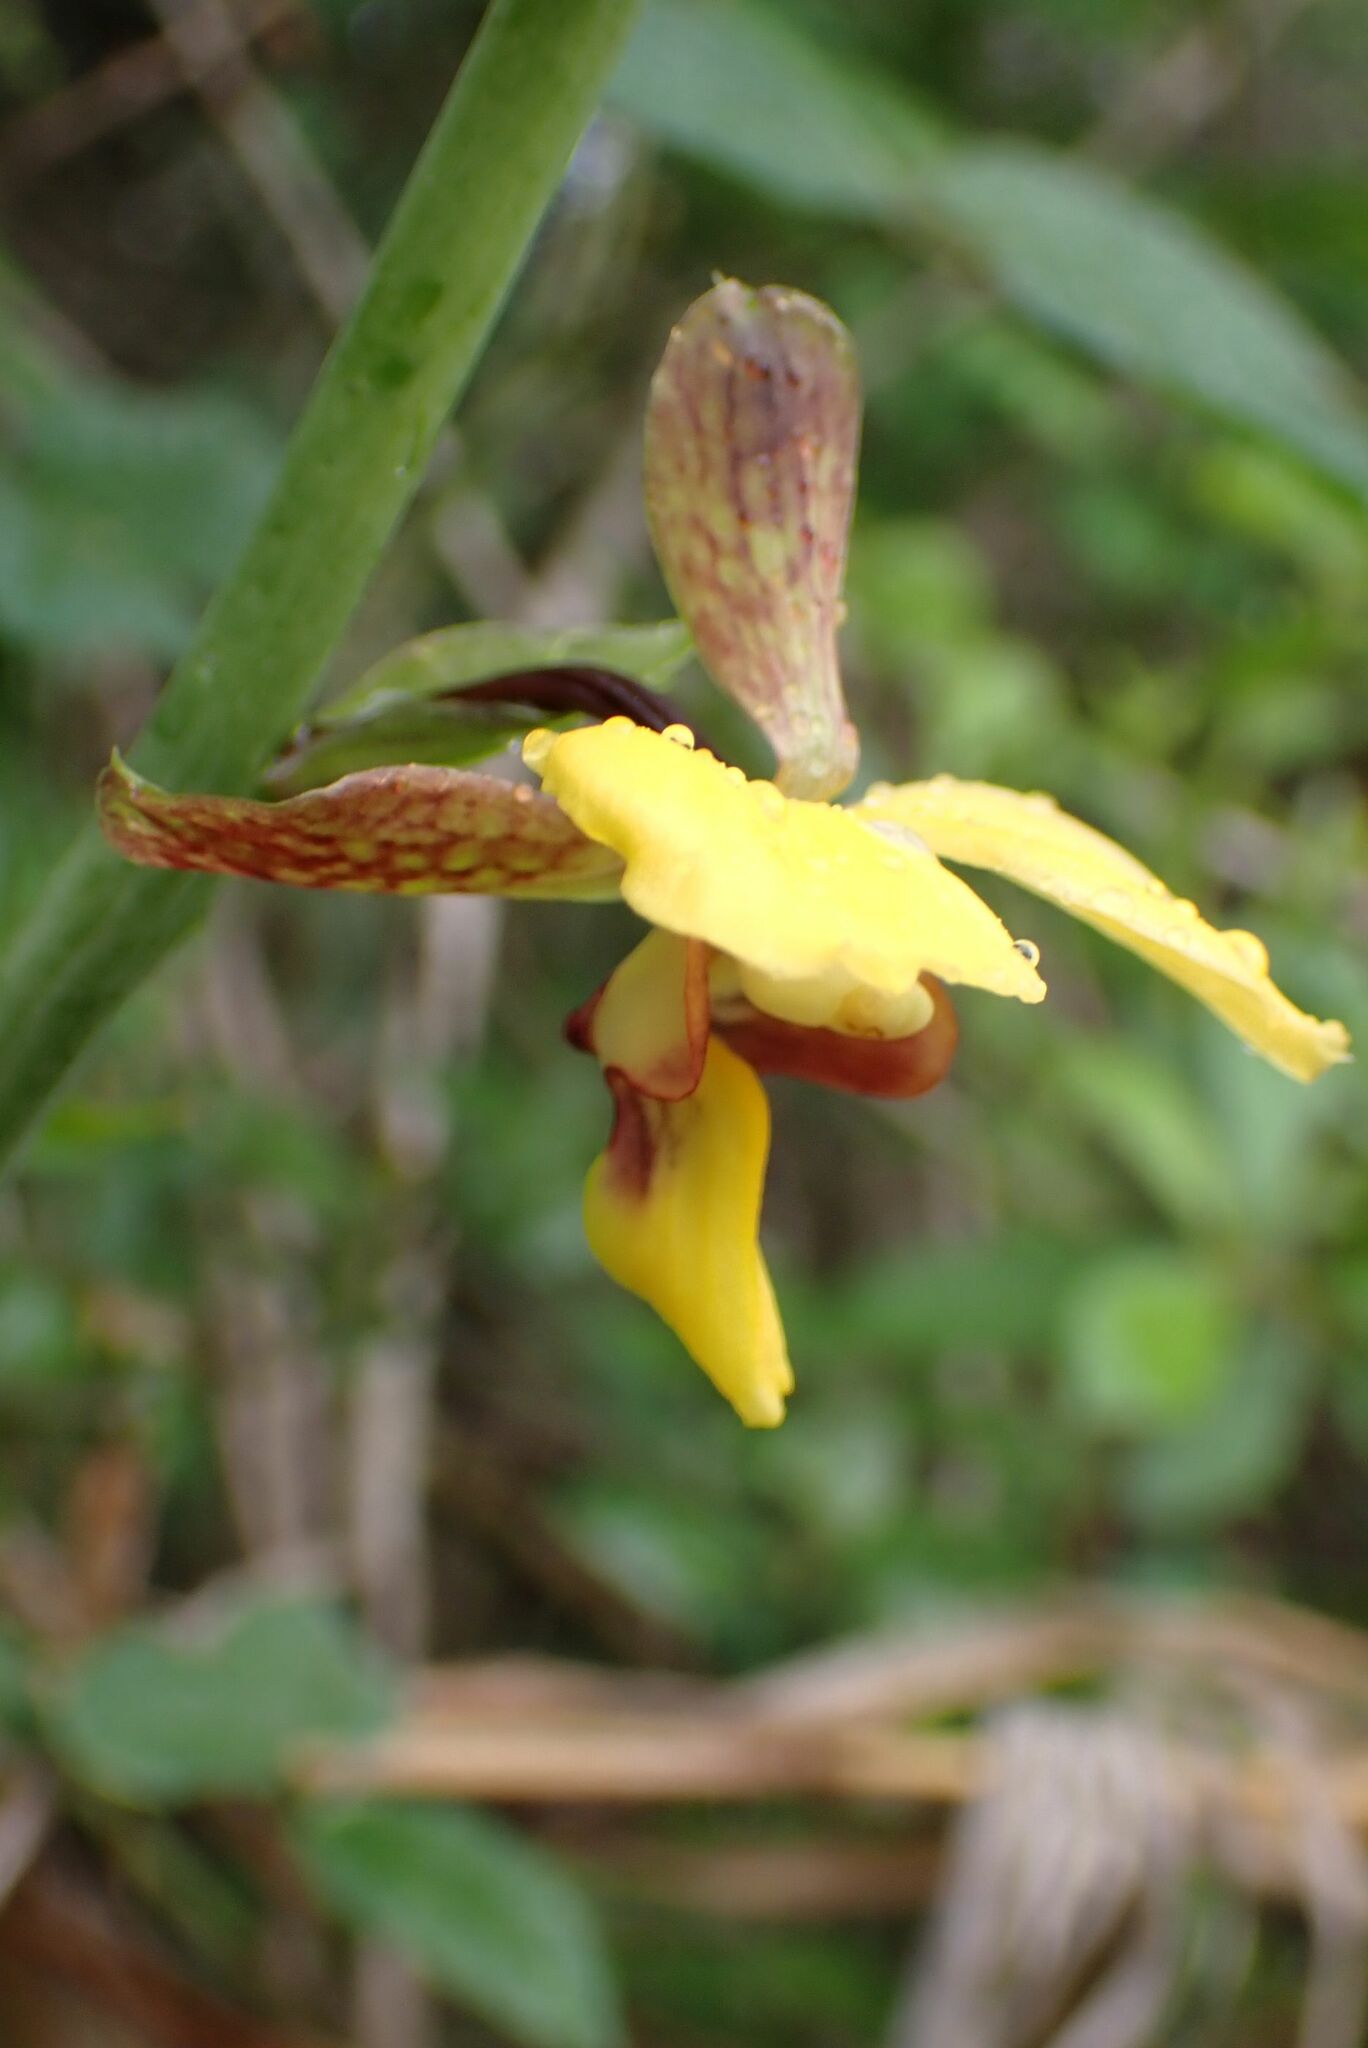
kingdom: Plantae
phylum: Tracheophyta
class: Liliopsida
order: Asparagales
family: Orchidaceae
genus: Eulophia
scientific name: Eulophia streptopetala
